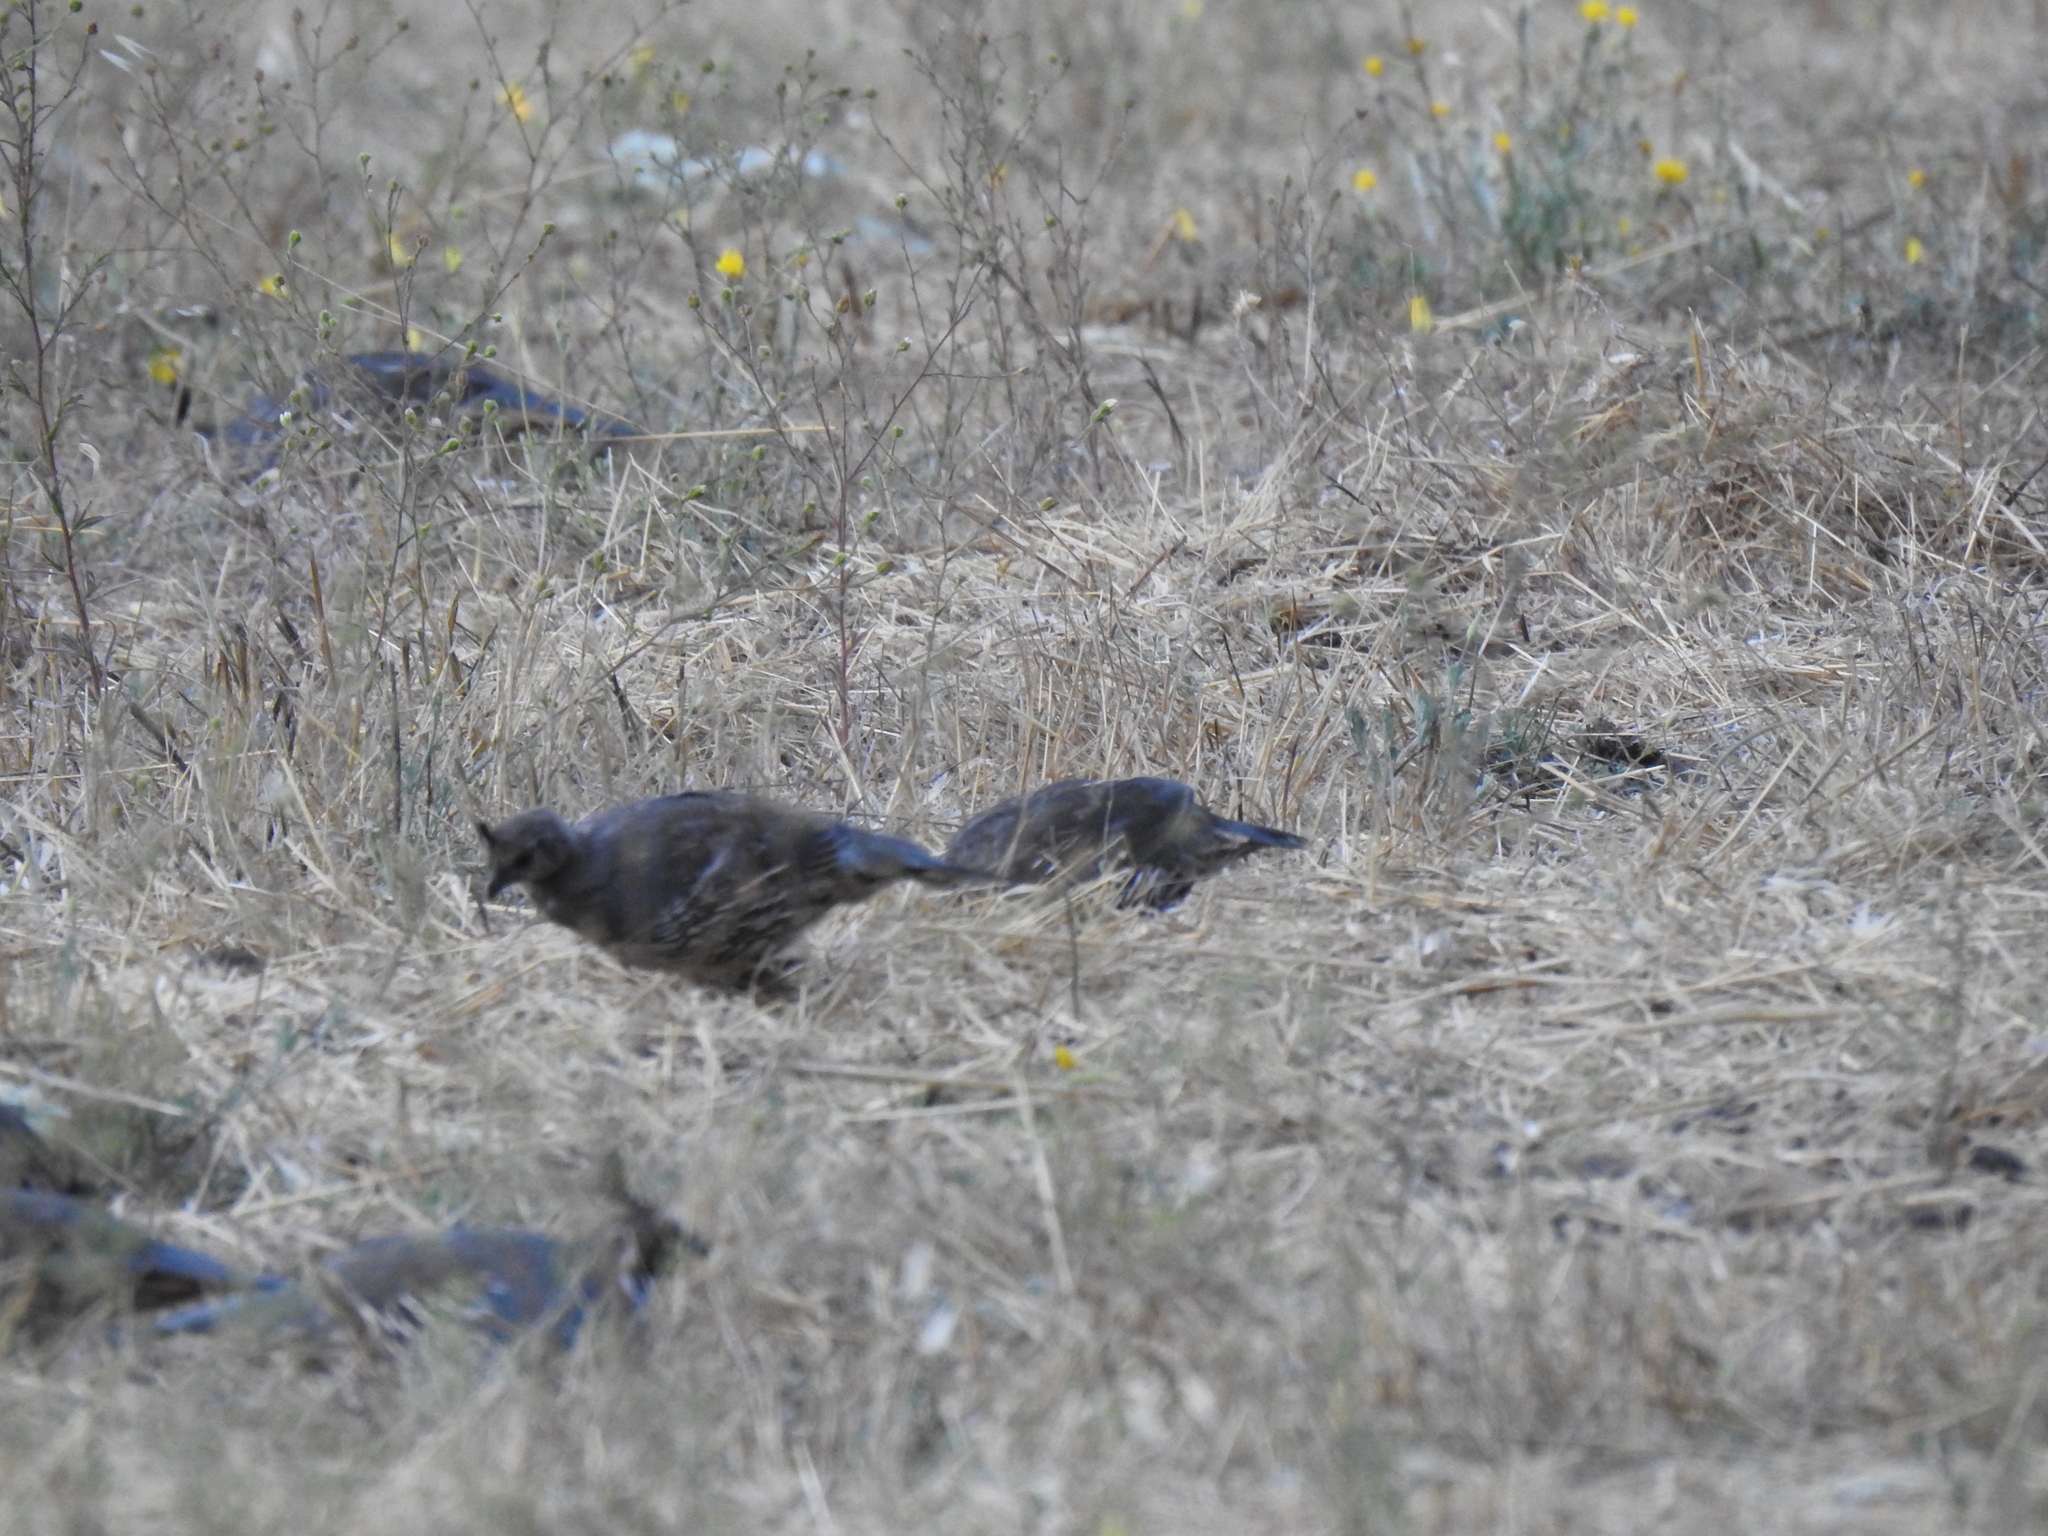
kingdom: Animalia
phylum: Chordata
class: Aves
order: Galliformes
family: Odontophoridae
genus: Callipepla
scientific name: Callipepla californica
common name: California quail
